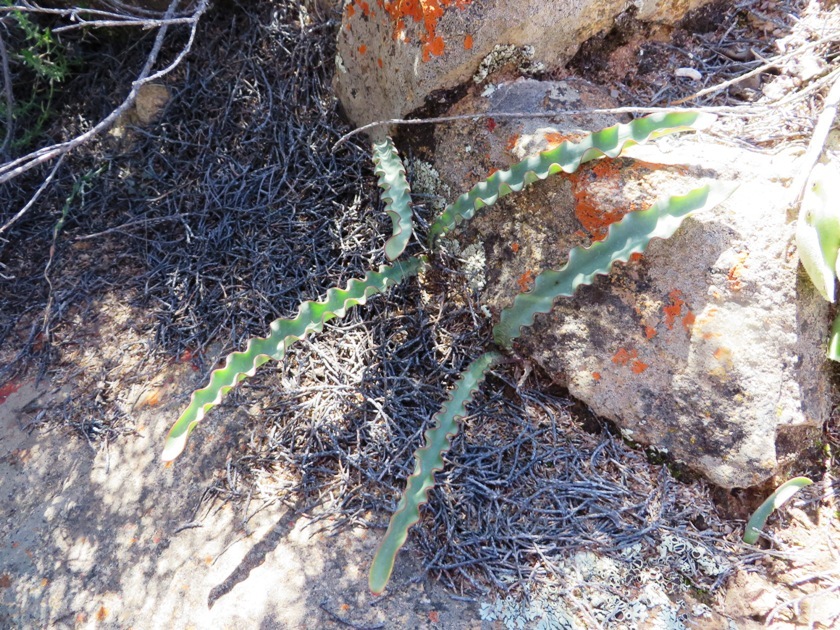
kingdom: Plantae
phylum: Tracheophyta
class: Liliopsida
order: Asparagales
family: Amaryllidaceae
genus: Haemanthus
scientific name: Haemanthus crispus
